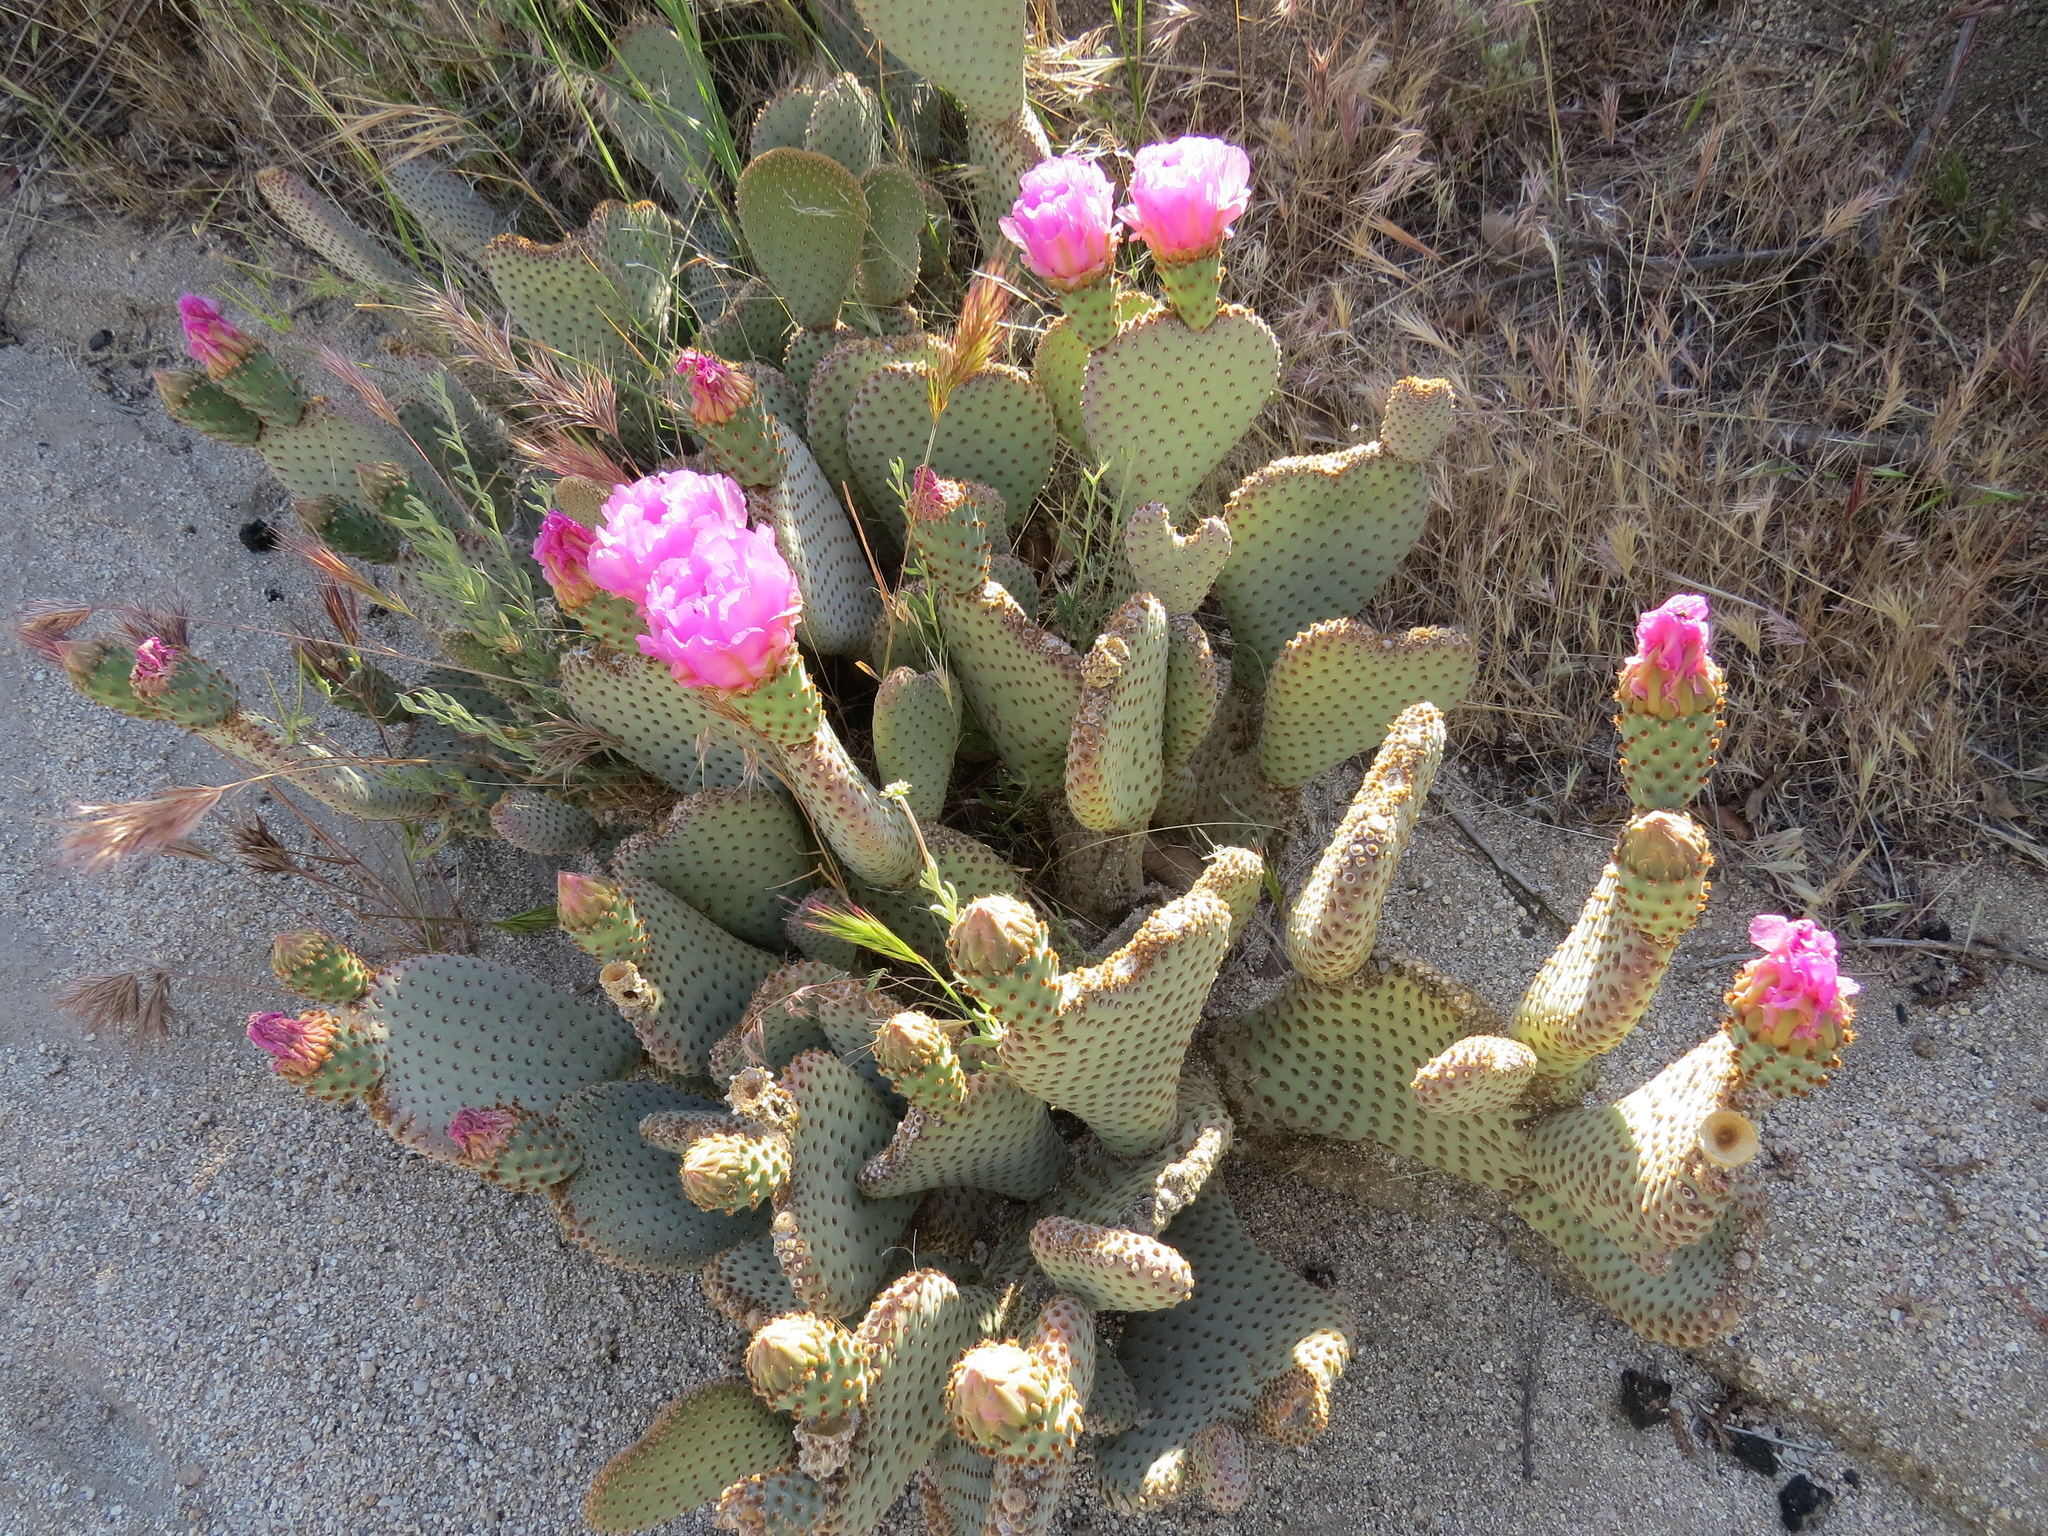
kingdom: Plantae
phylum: Tracheophyta
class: Magnoliopsida
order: Caryophyllales
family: Cactaceae
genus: Opuntia
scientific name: Opuntia basilaris
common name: Beavertail prickly-pear
